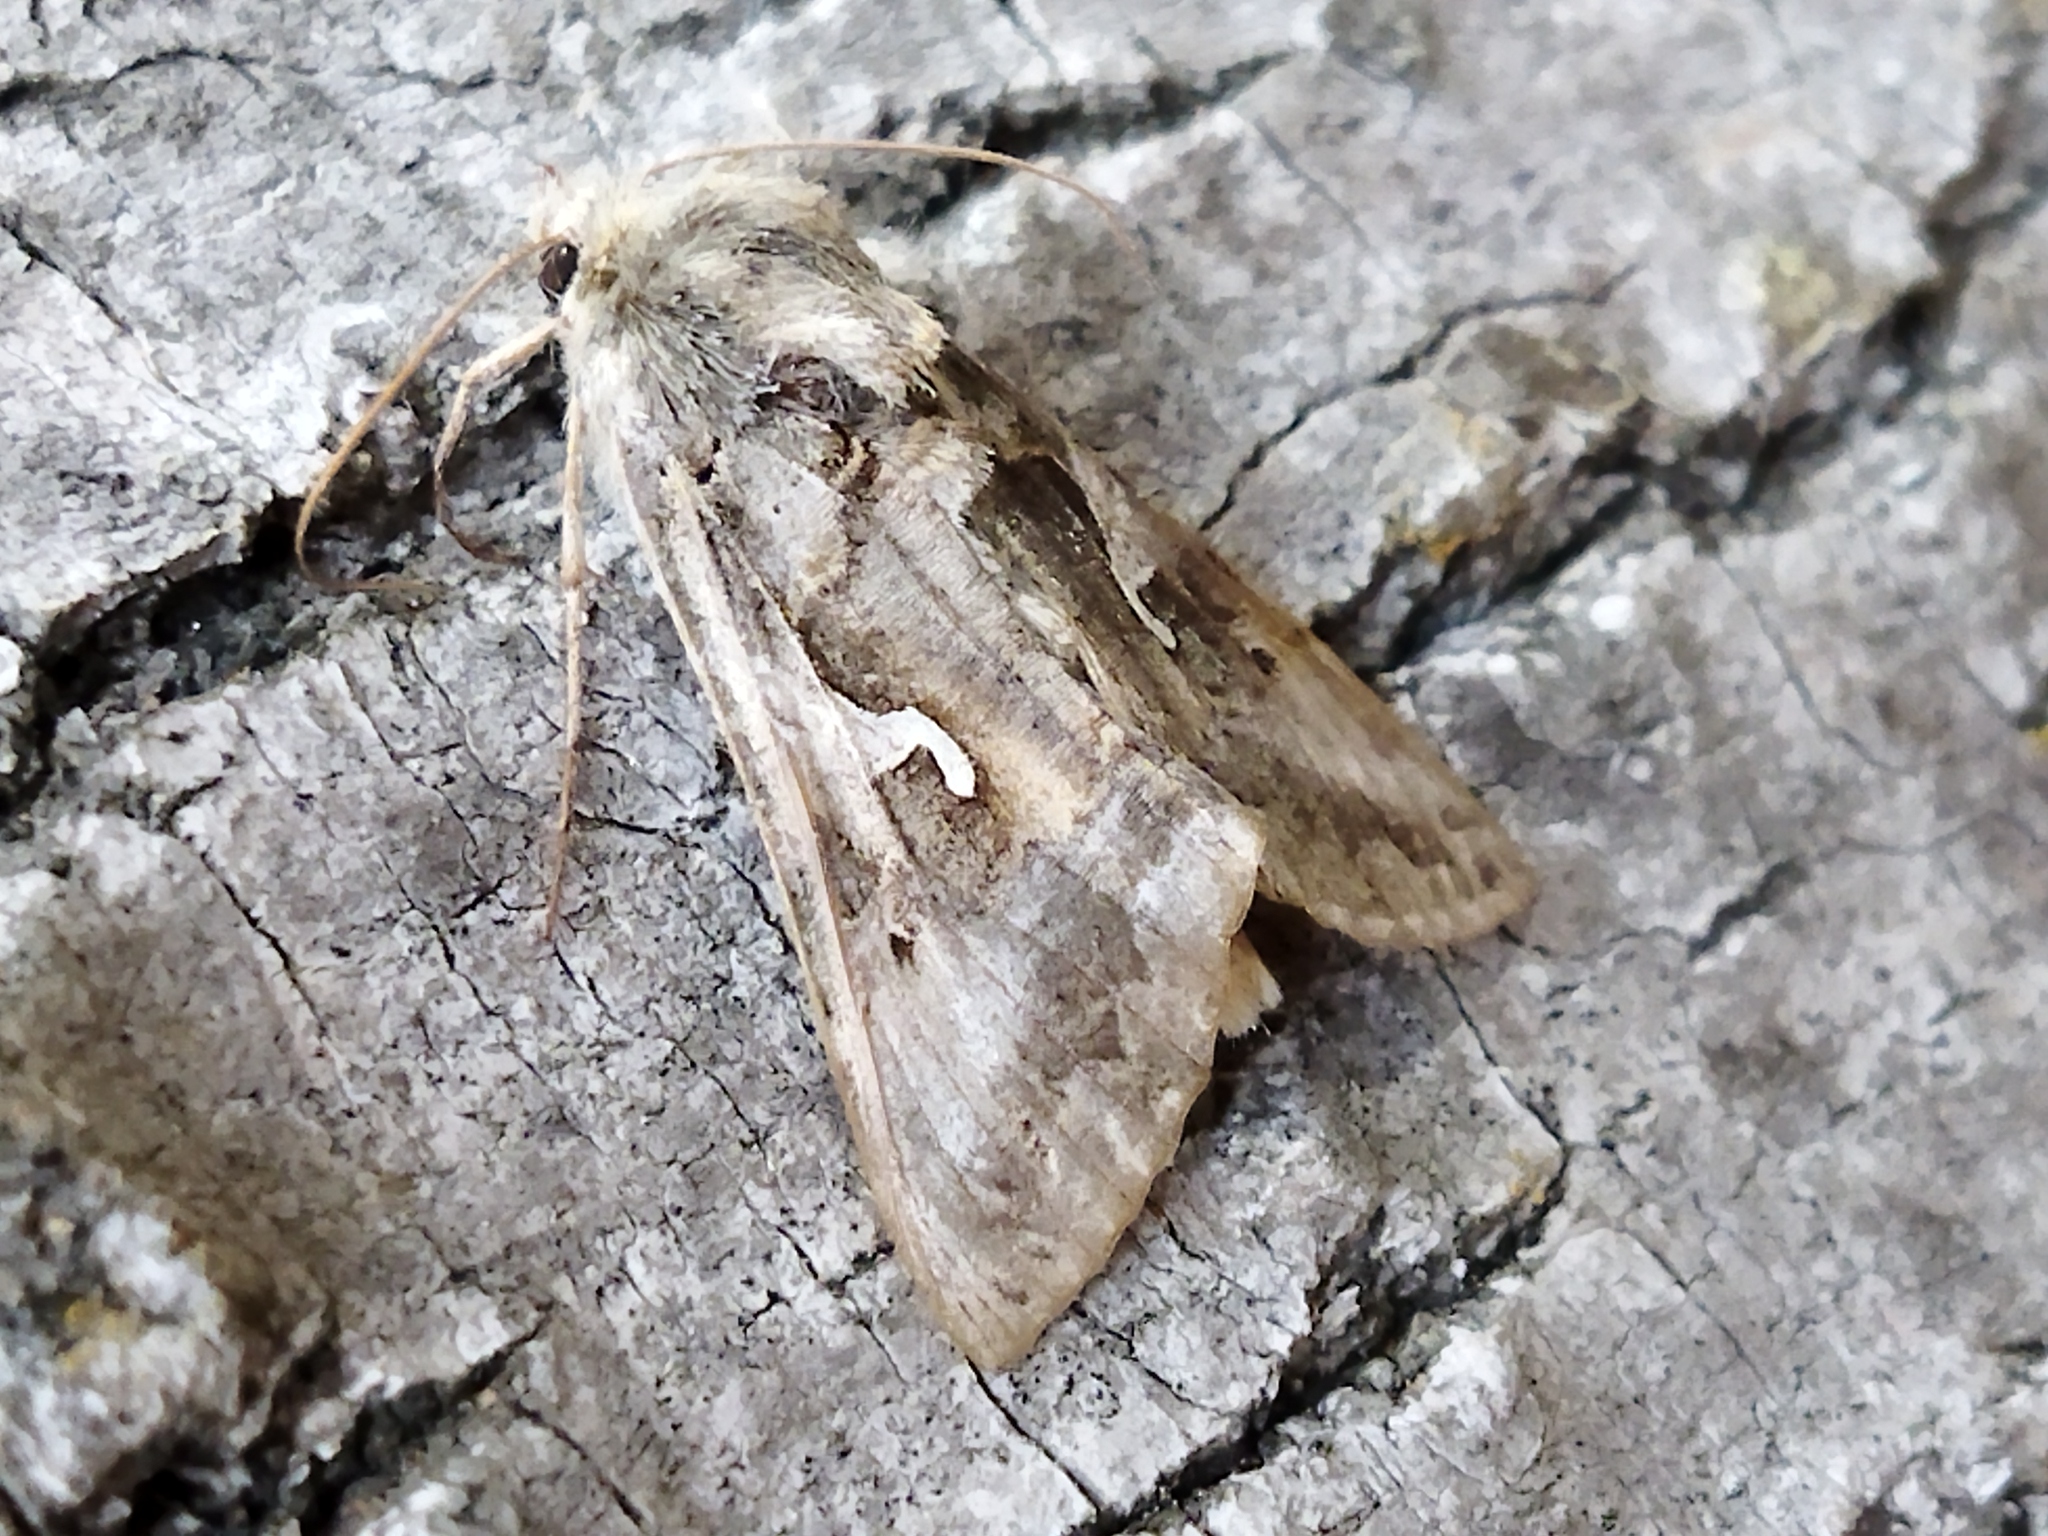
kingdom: Animalia
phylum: Arthropoda
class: Insecta
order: Lepidoptera
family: Noctuidae
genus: Autographa
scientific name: Autographa gamma
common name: Silver y
